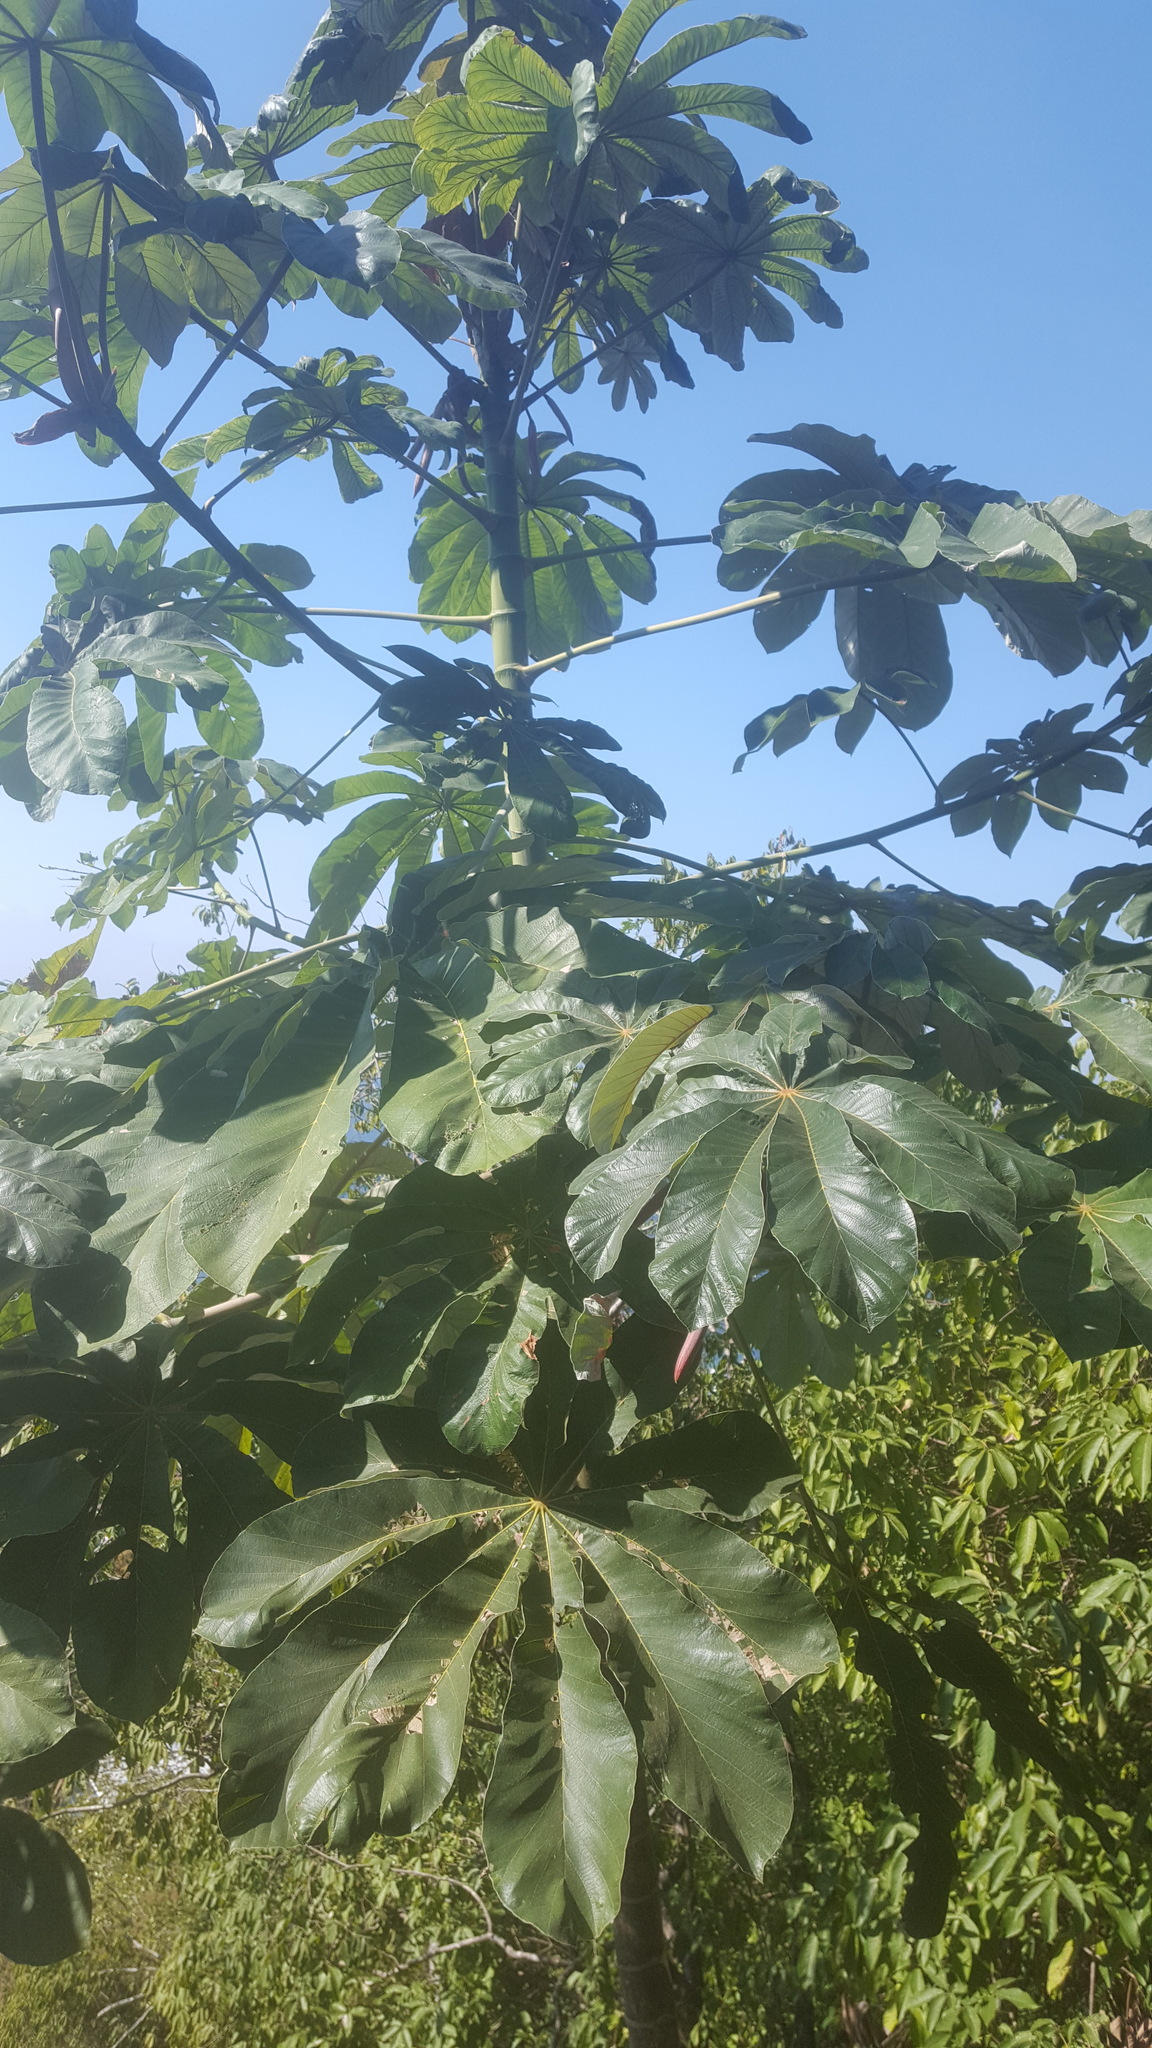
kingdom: Plantae
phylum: Tracheophyta
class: Magnoliopsida
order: Rosales
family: Urticaceae
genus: Cecropia
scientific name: Cecropia obtusifolia
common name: Trumpet tree
